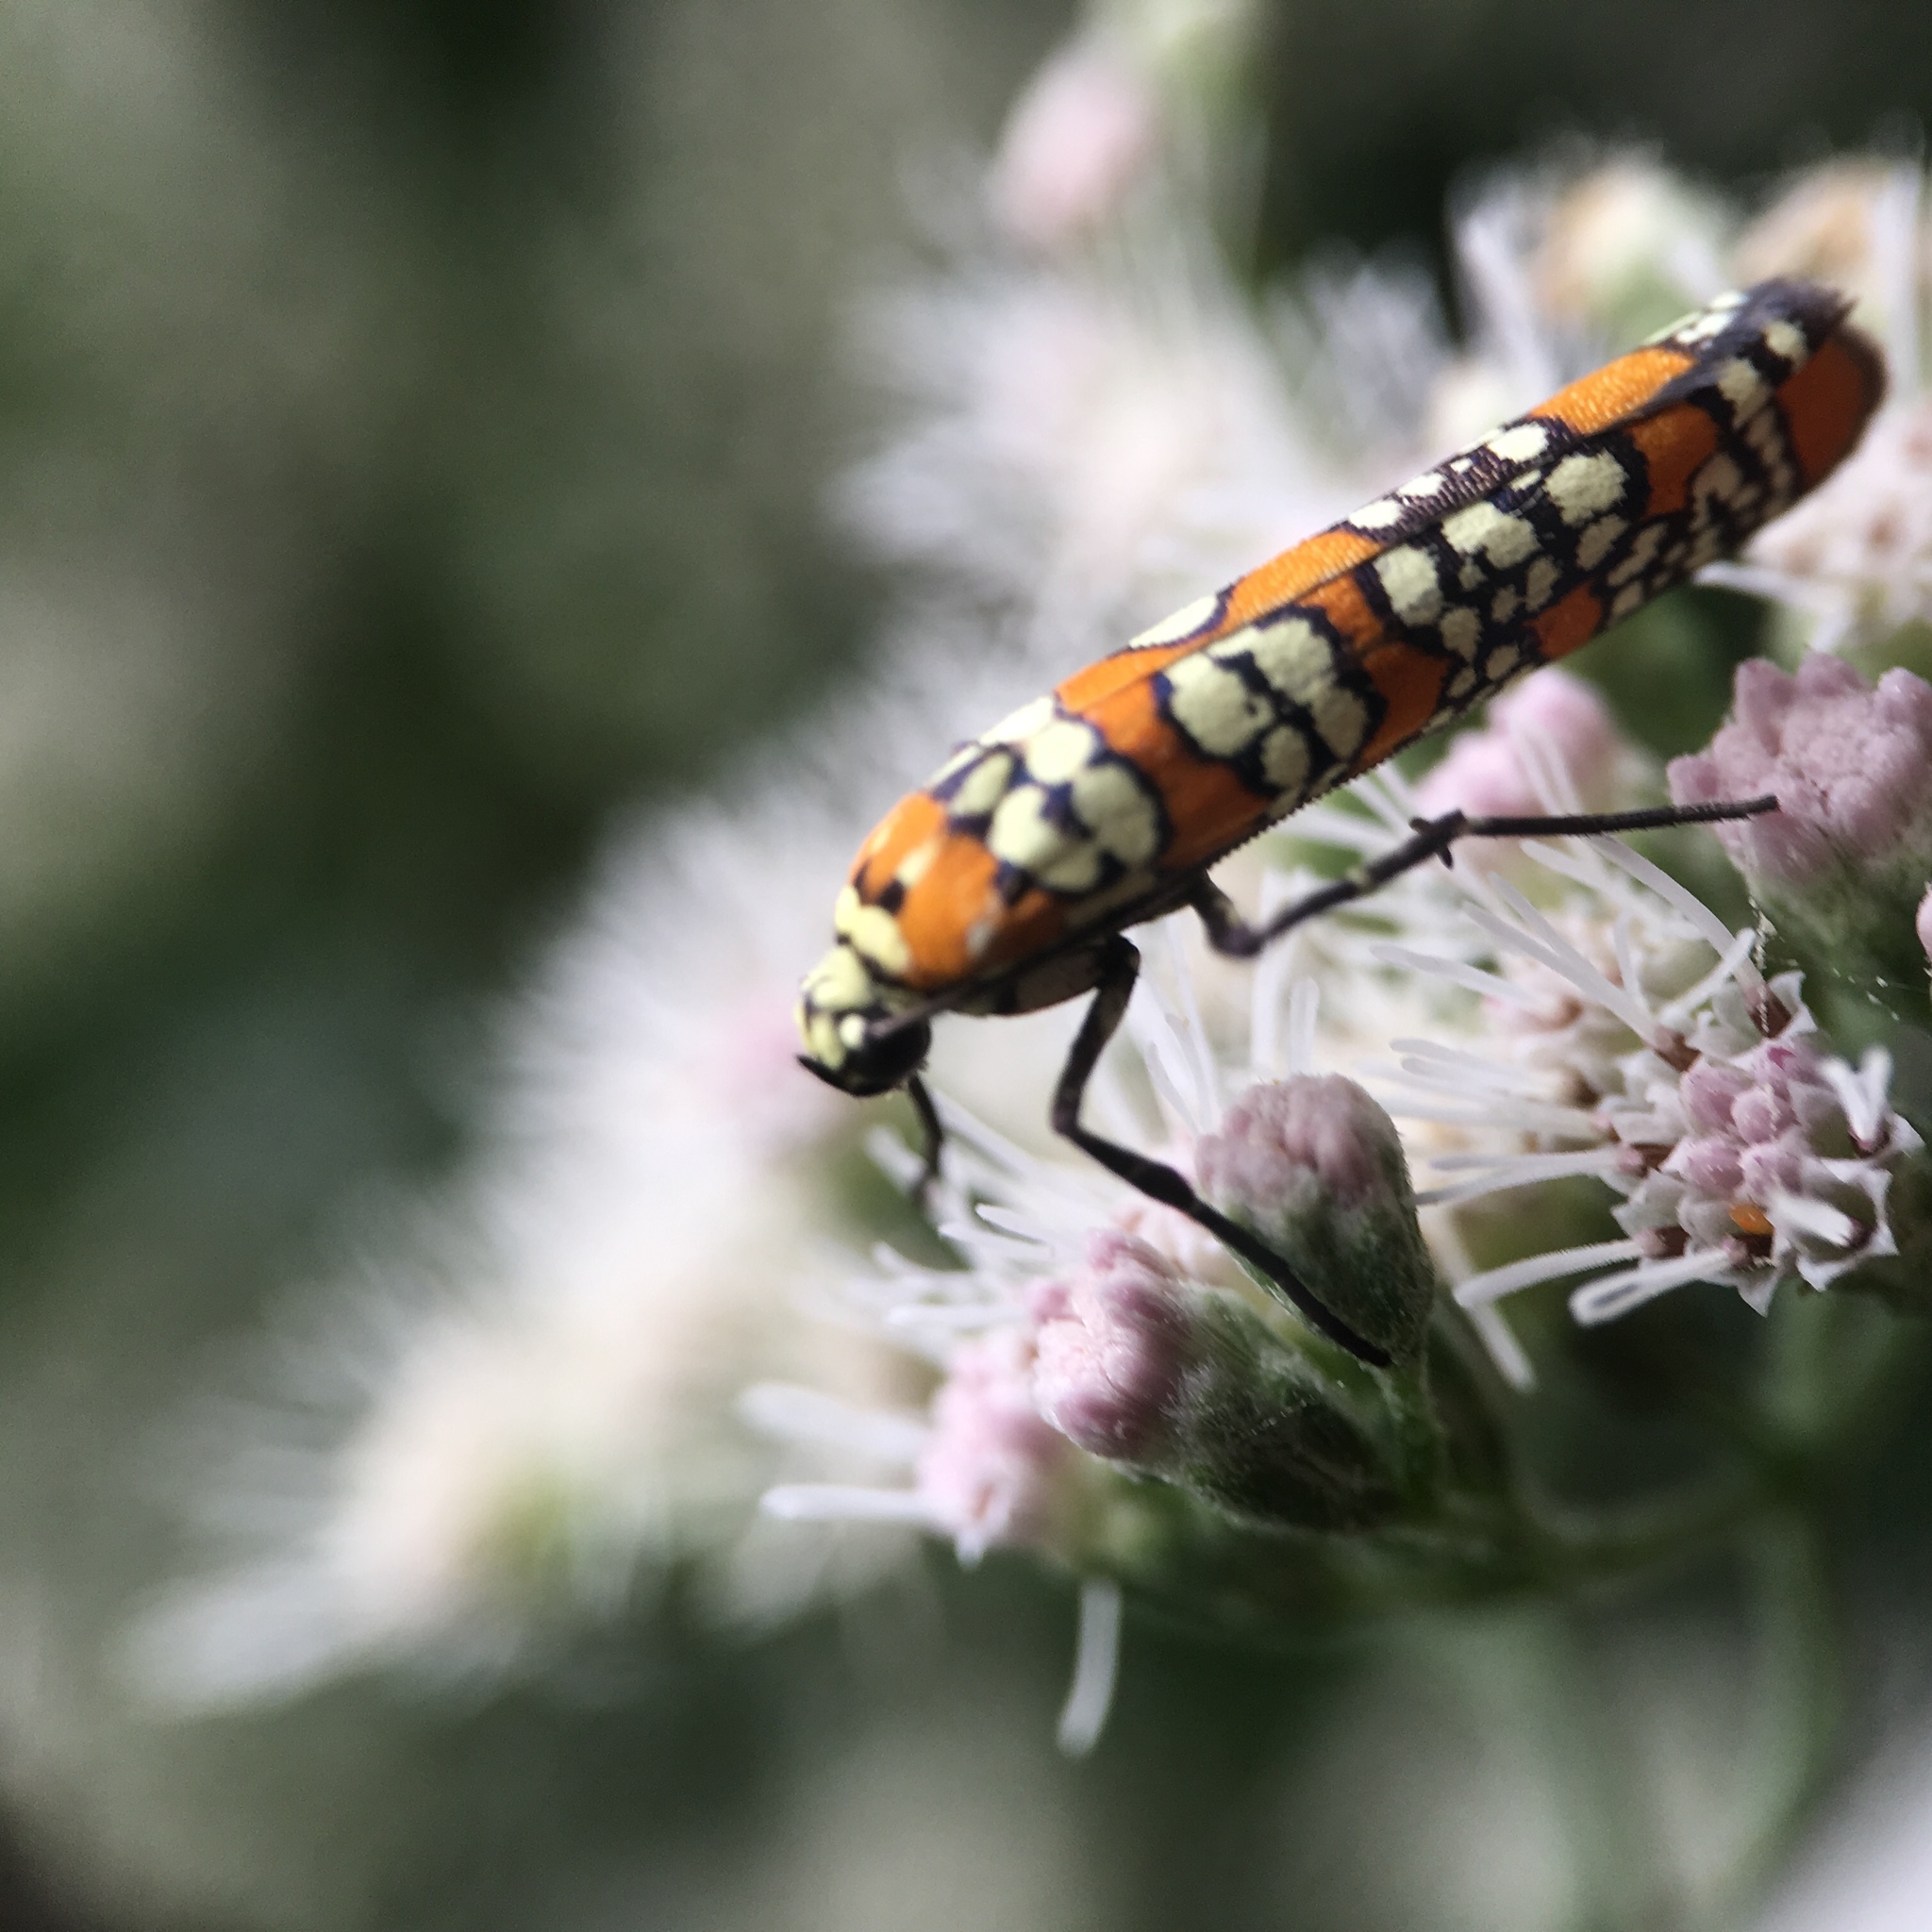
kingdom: Animalia
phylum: Arthropoda
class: Insecta
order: Lepidoptera
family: Attevidae
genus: Atteva
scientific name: Atteva punctella
